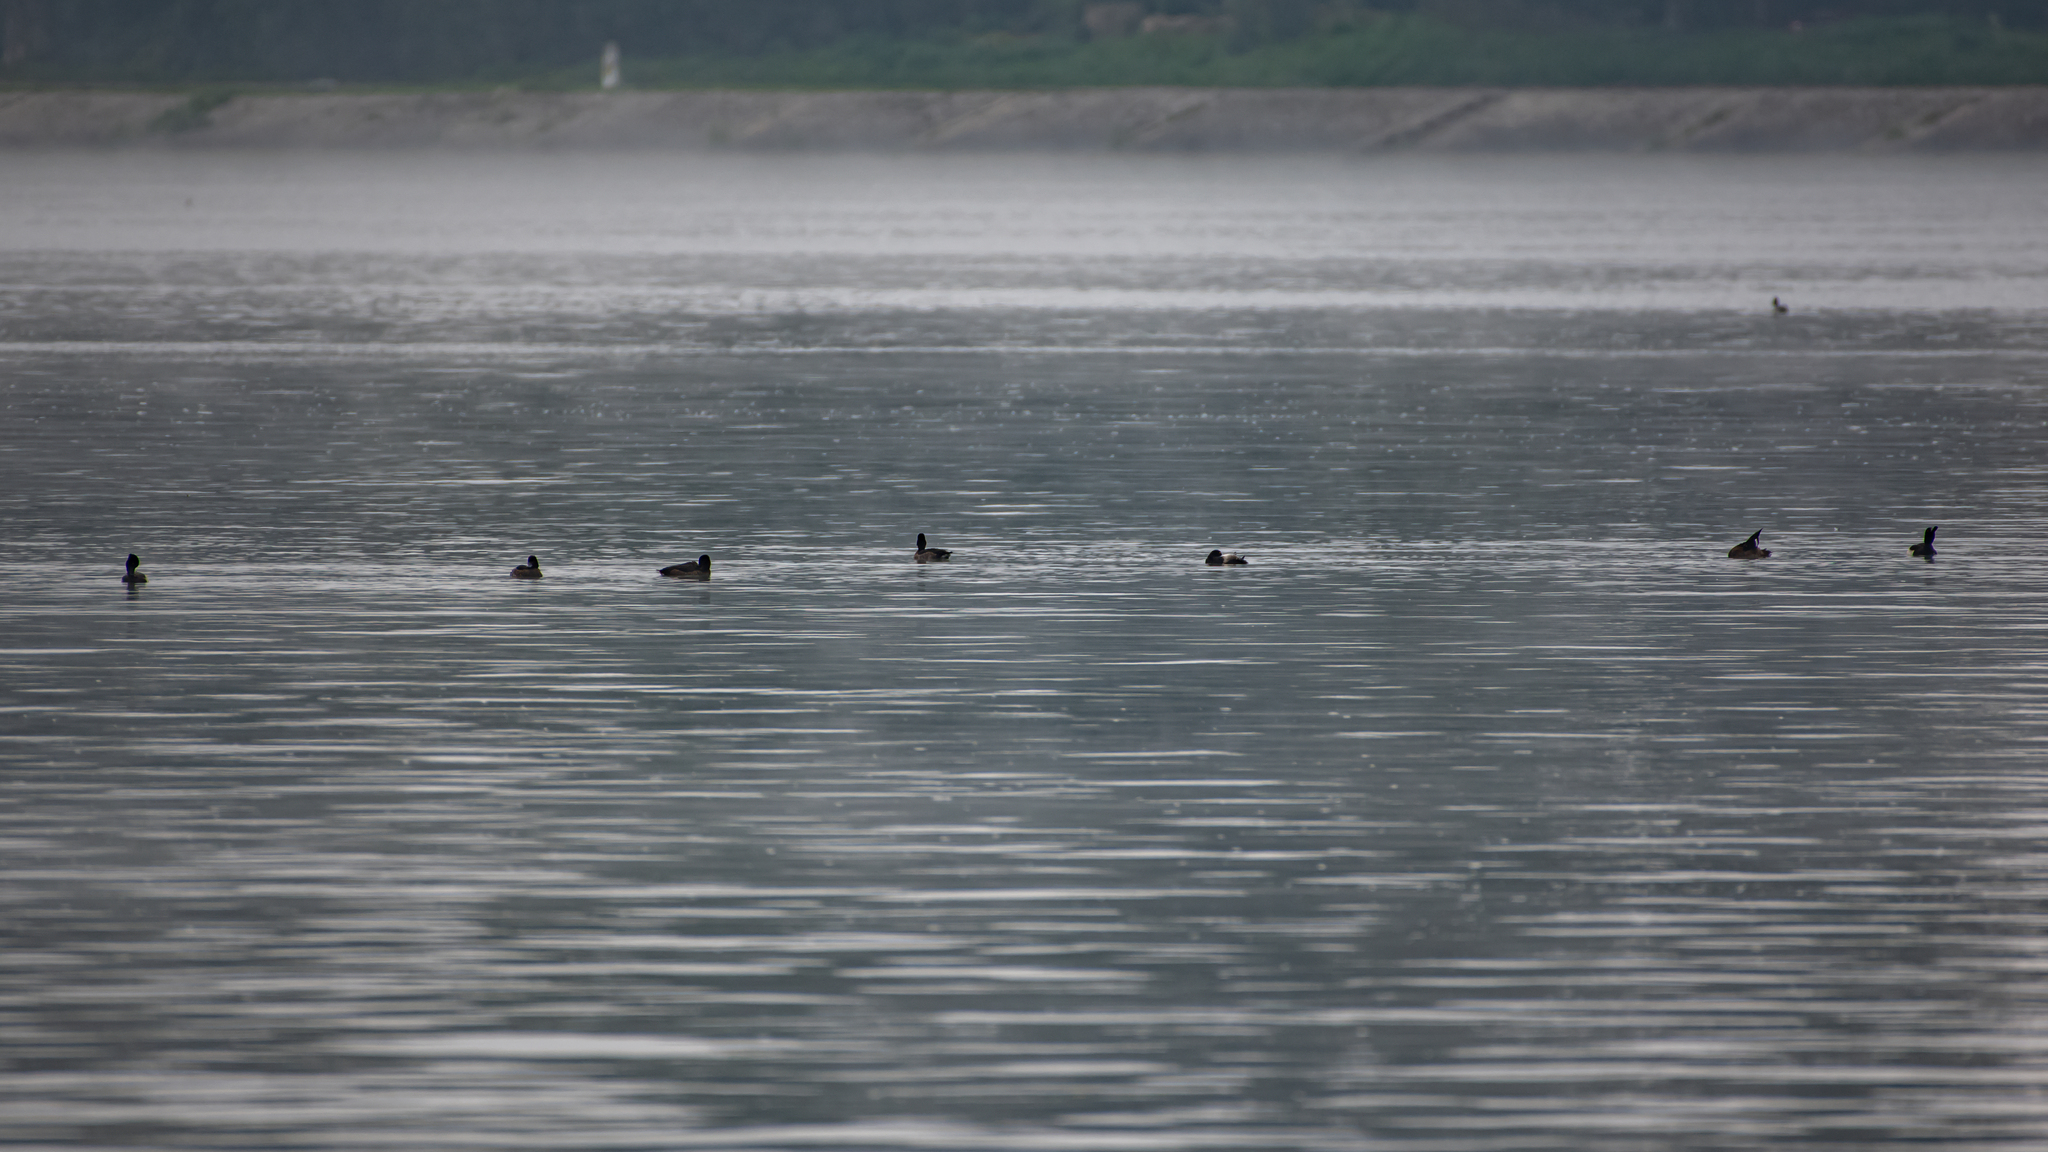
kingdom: Animalia
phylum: Chordata
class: Aves
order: Anseriformes
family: Anatidae
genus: Aythya
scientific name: Aythya fuligula
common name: Tufted duck
